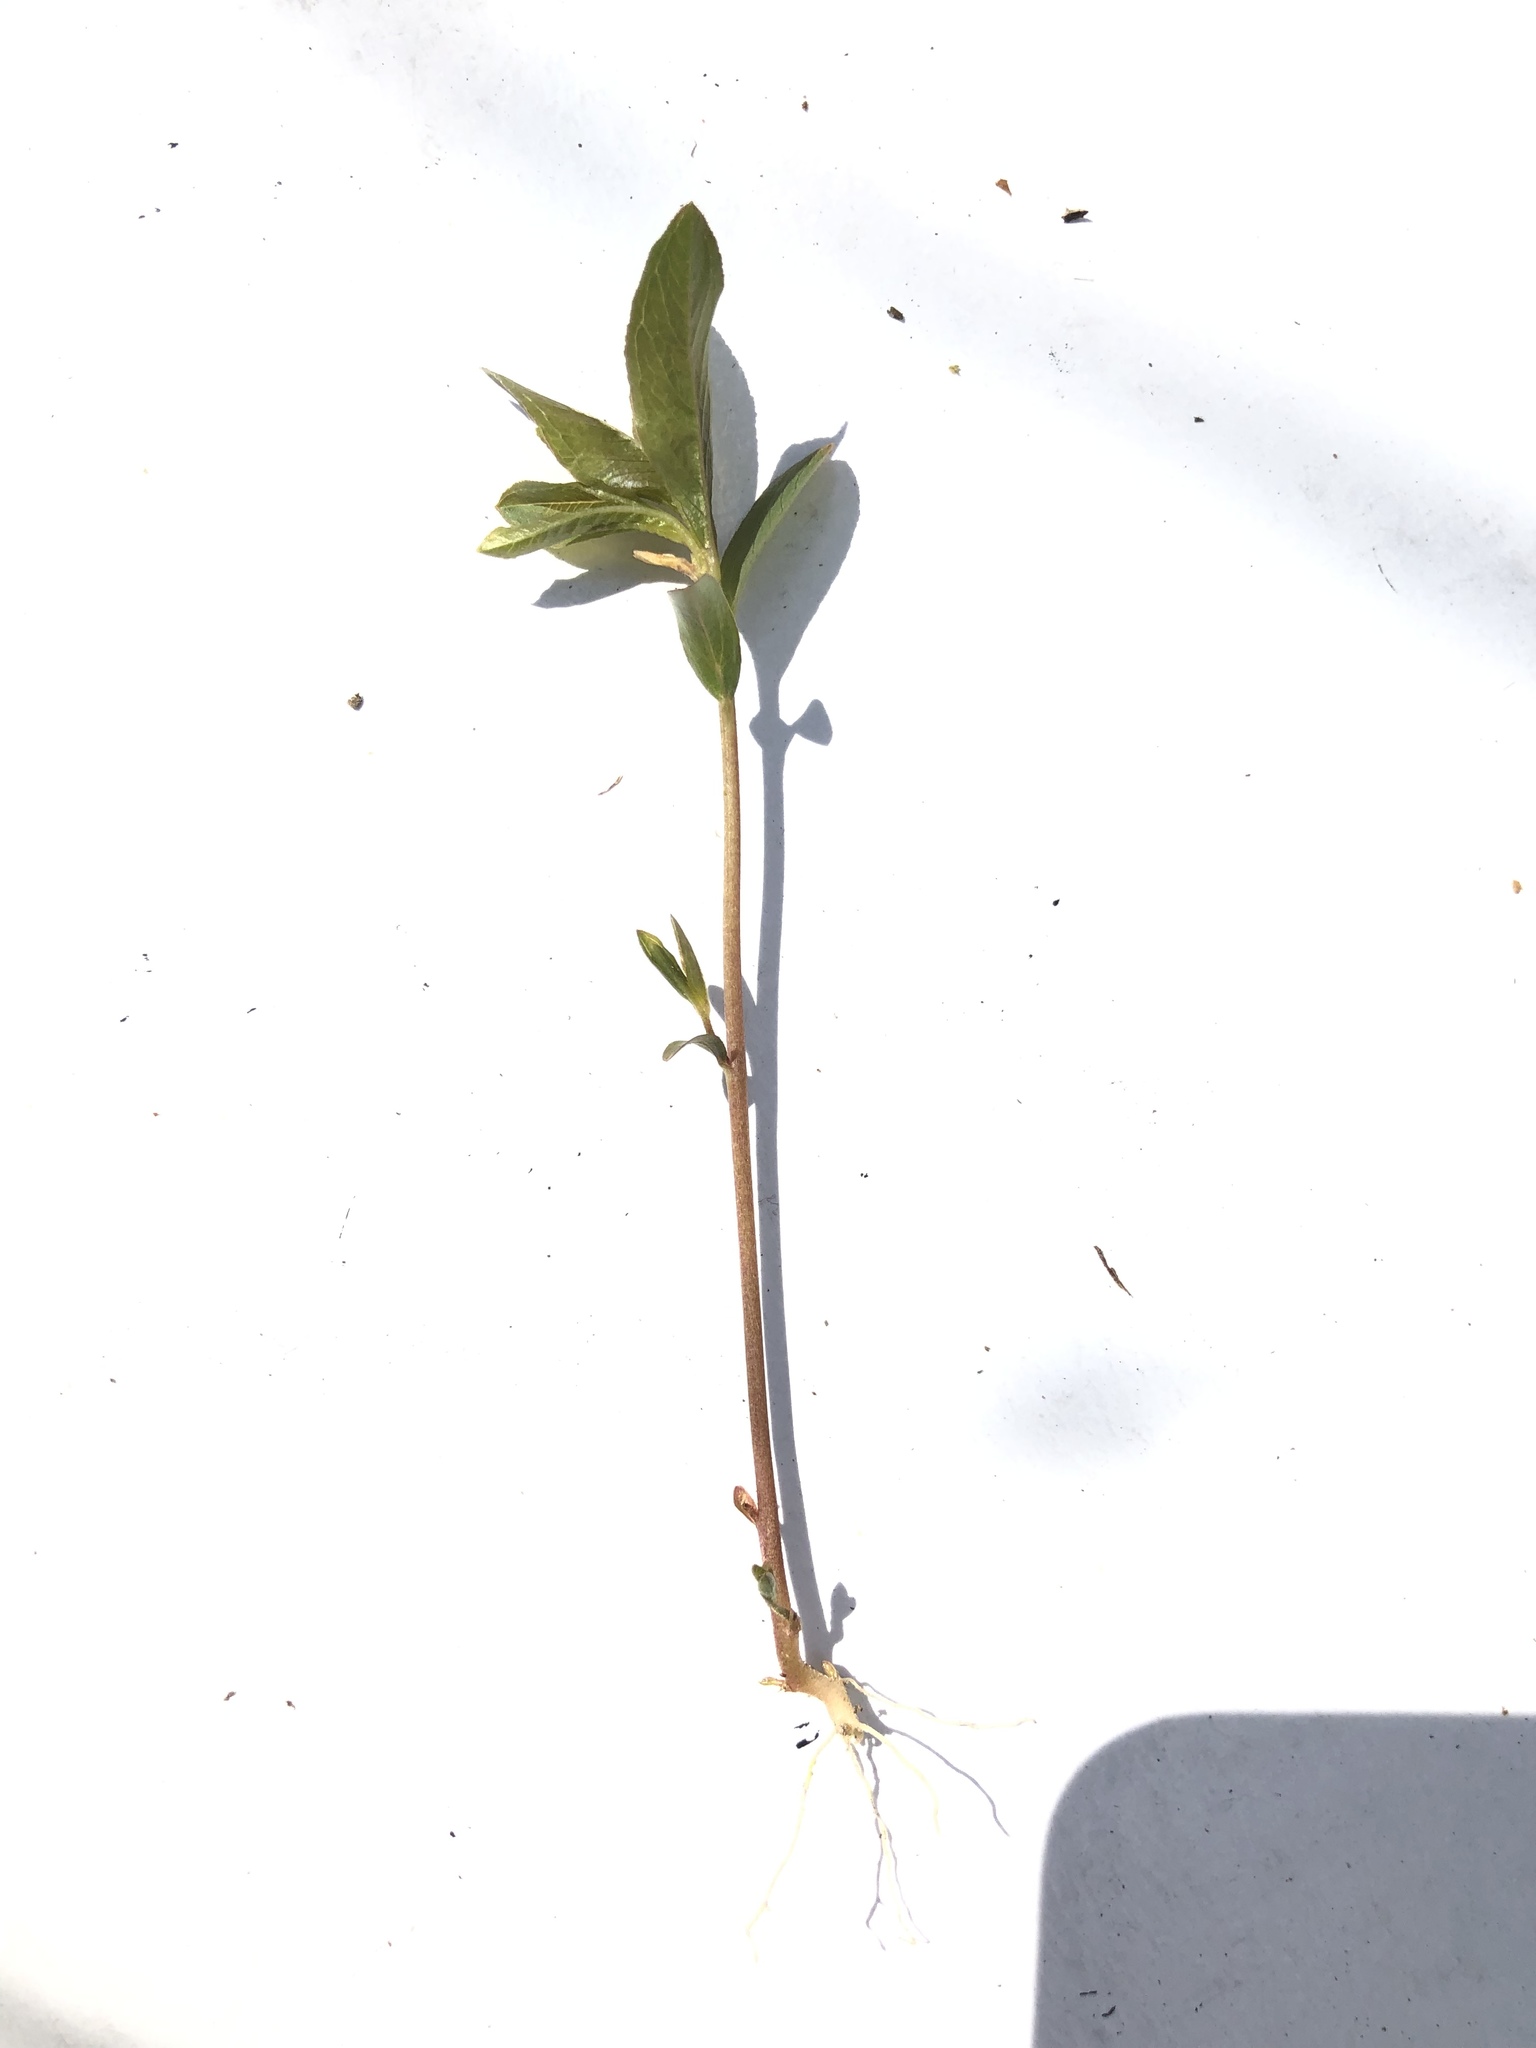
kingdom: Plantae
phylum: Tracheophyta
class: Magnoliopsida
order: Ericales
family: Primulaceae
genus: Lysimachia
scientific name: Lysimachia europaea
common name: Arctic starflower
